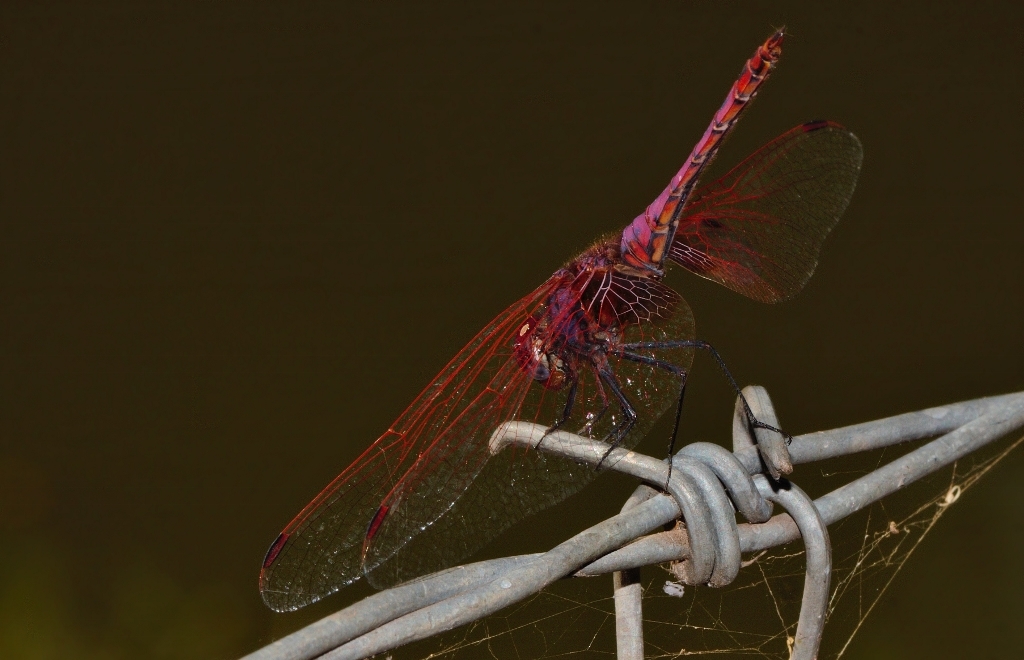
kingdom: Animalia
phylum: Arthropoda
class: Insecta
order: Odonata
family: Libellulidae
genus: Trithemis
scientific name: Trithemis annulata
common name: Violet dropwing
